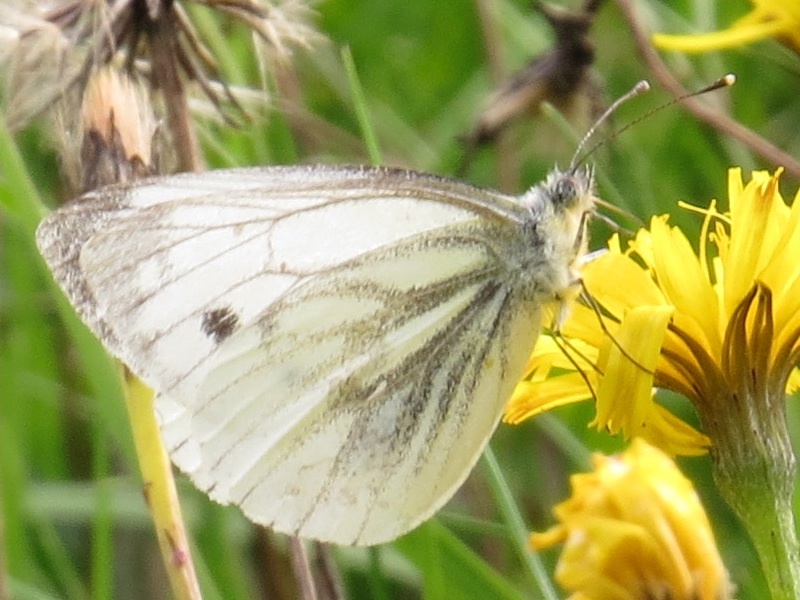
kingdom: Animalia
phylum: Arthropoda
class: Insecta
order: Lepidoptera
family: Pieridae
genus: Pieris
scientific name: Pieris napi
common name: Green-veined white
